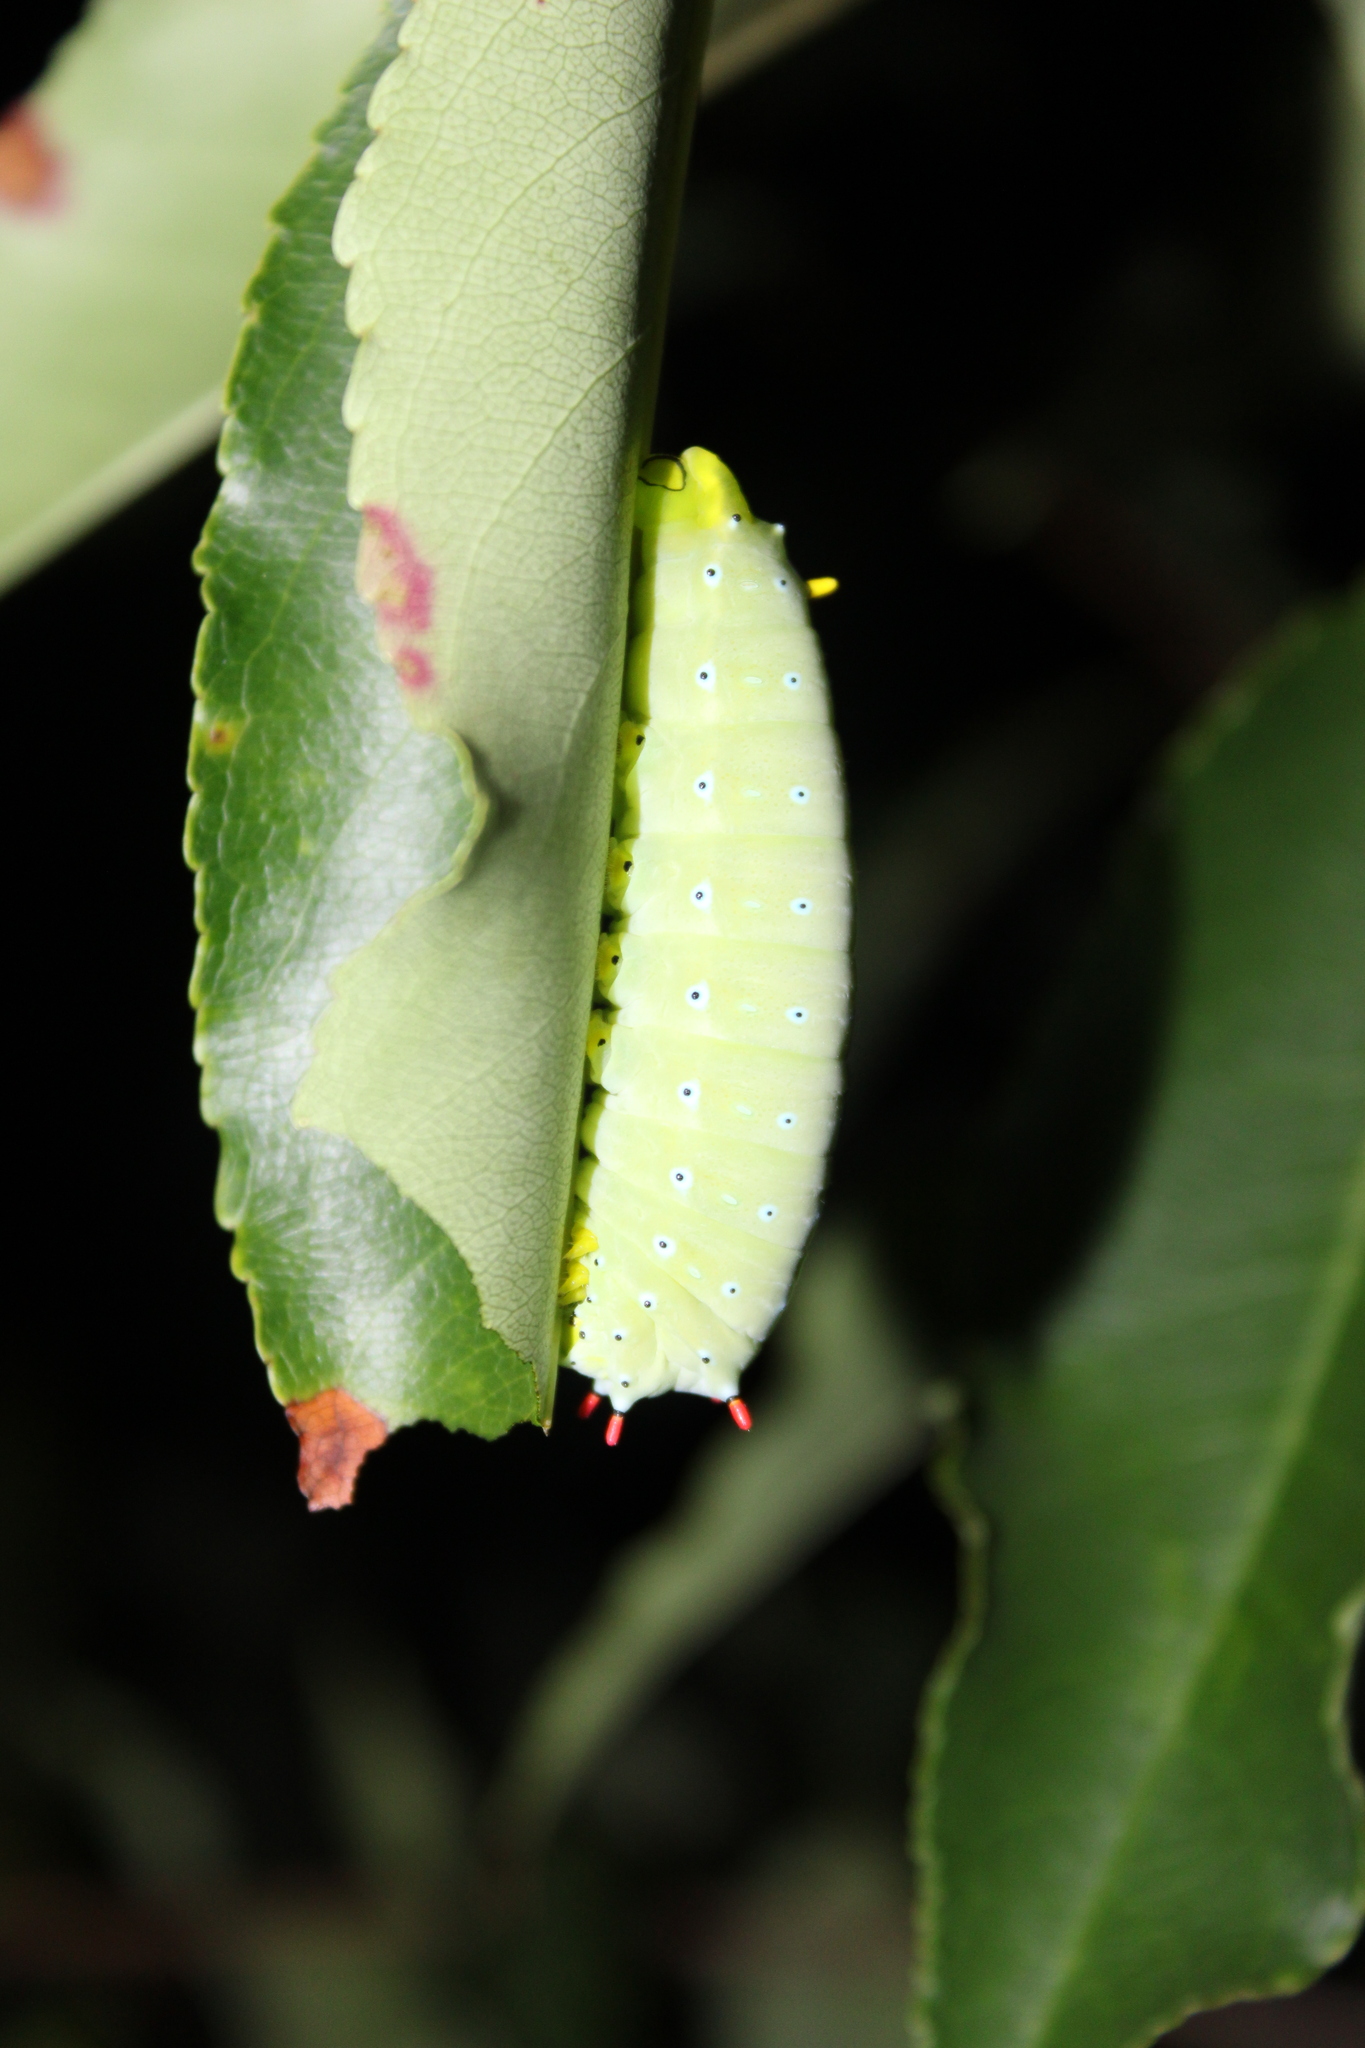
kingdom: Animalia
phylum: Arthropoda
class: Insecta
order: Lepidoptera
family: Saturniidae
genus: Callosamia
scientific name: Callosamia promethea
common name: Promethea silkmoth
